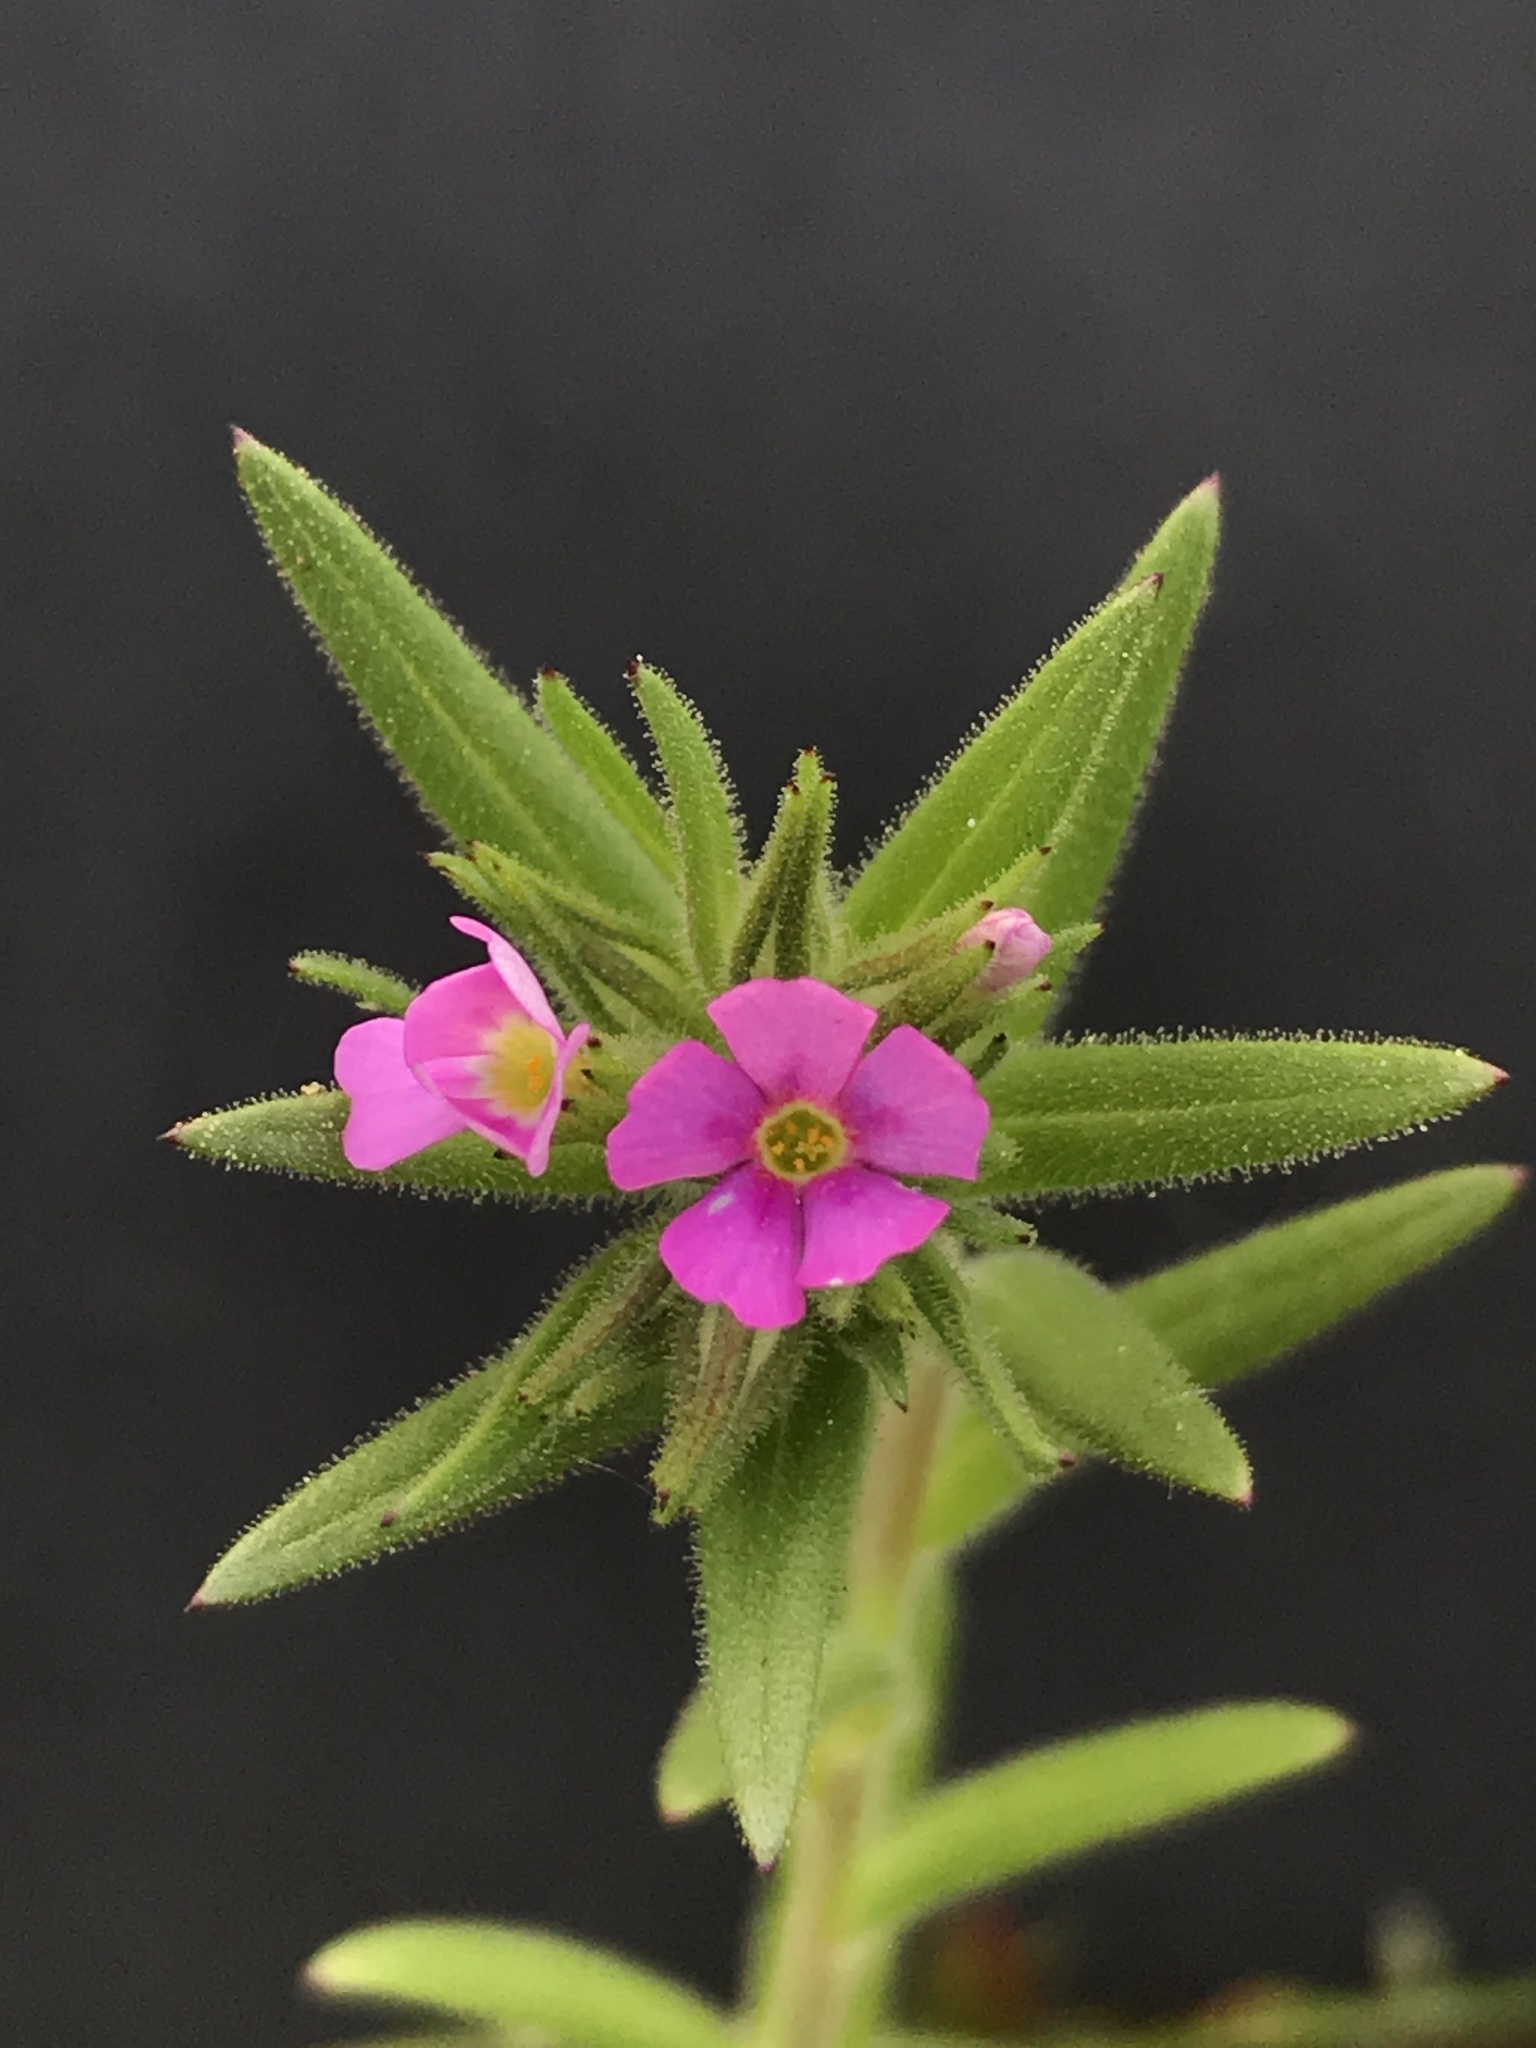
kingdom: Plantae
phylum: Tracheophyta
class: Magnoliopsida
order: Ericales
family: Polemoniaceae
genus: Phlox
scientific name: Phlox gracilis
